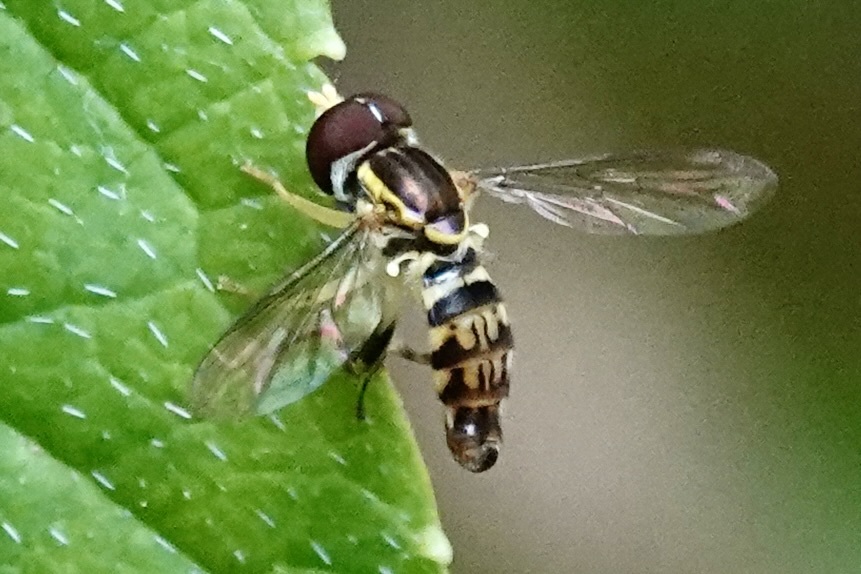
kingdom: Animalia
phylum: Arthropoda
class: Insecta
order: Diptera
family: Syrphidae
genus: Toxomerus
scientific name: Toxomerus geminatus
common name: Eastern calligrapher
